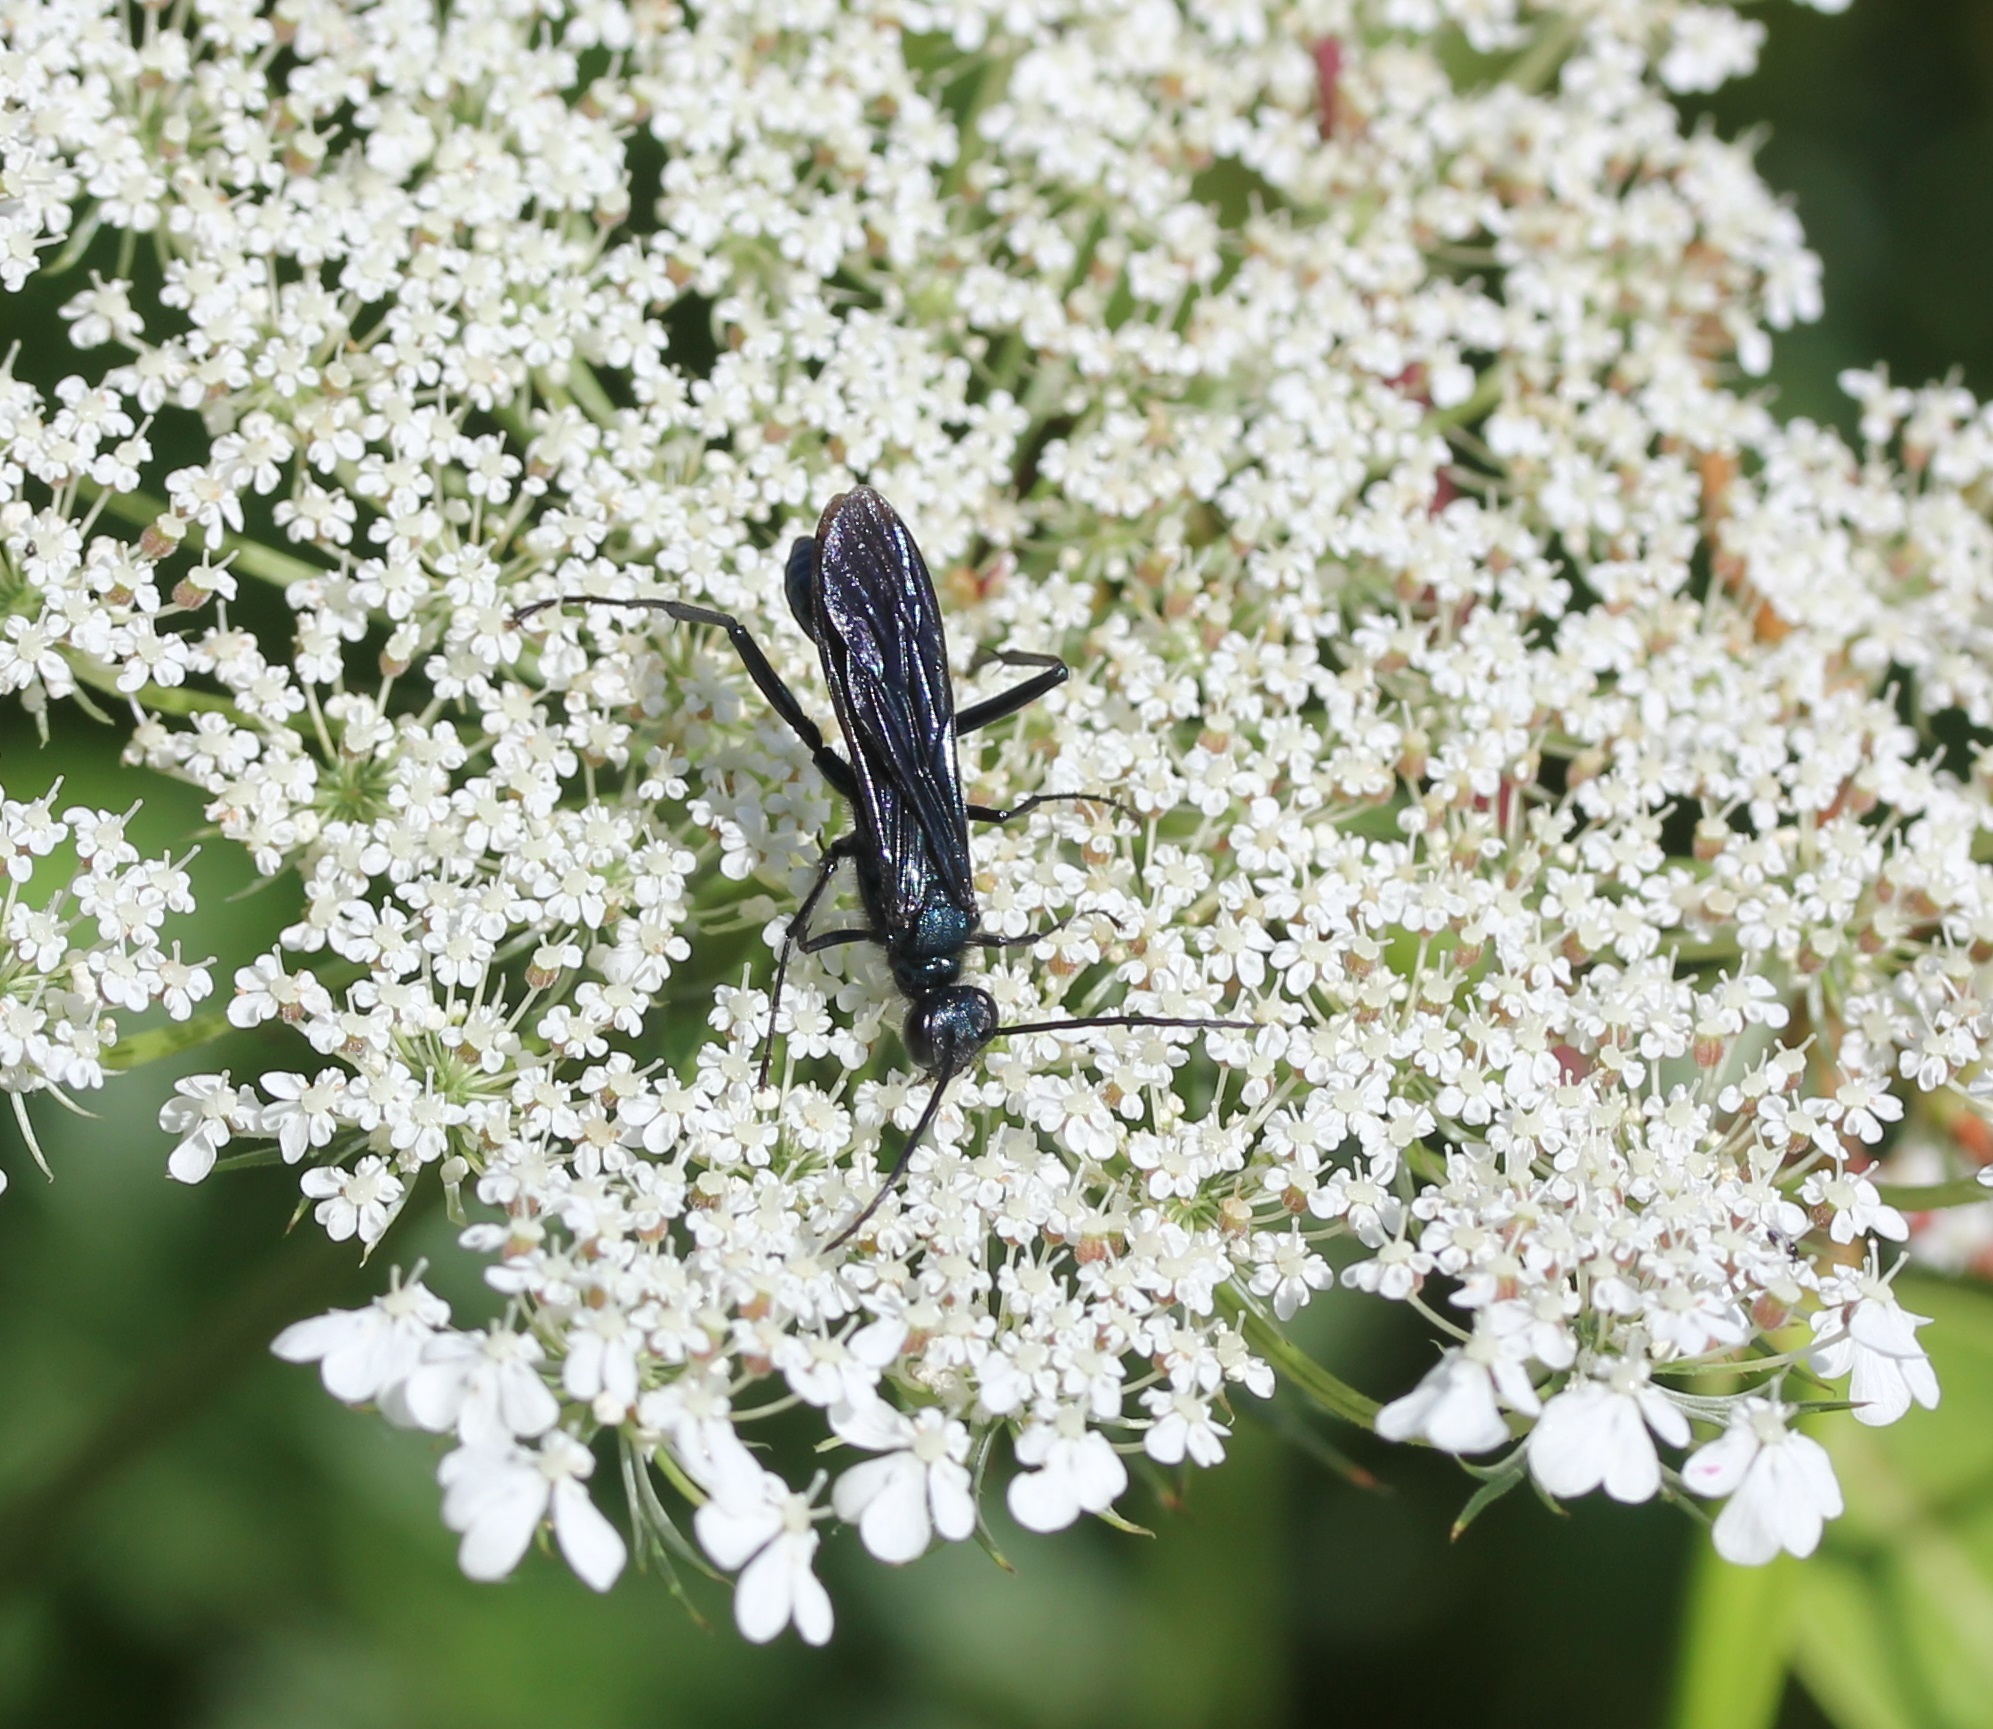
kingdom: Animalia
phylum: Arthropoda
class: Insecta
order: Hymenoptera
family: Sphecidae
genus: Chalybion
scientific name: Chalybion californicum
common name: Mud dauber
